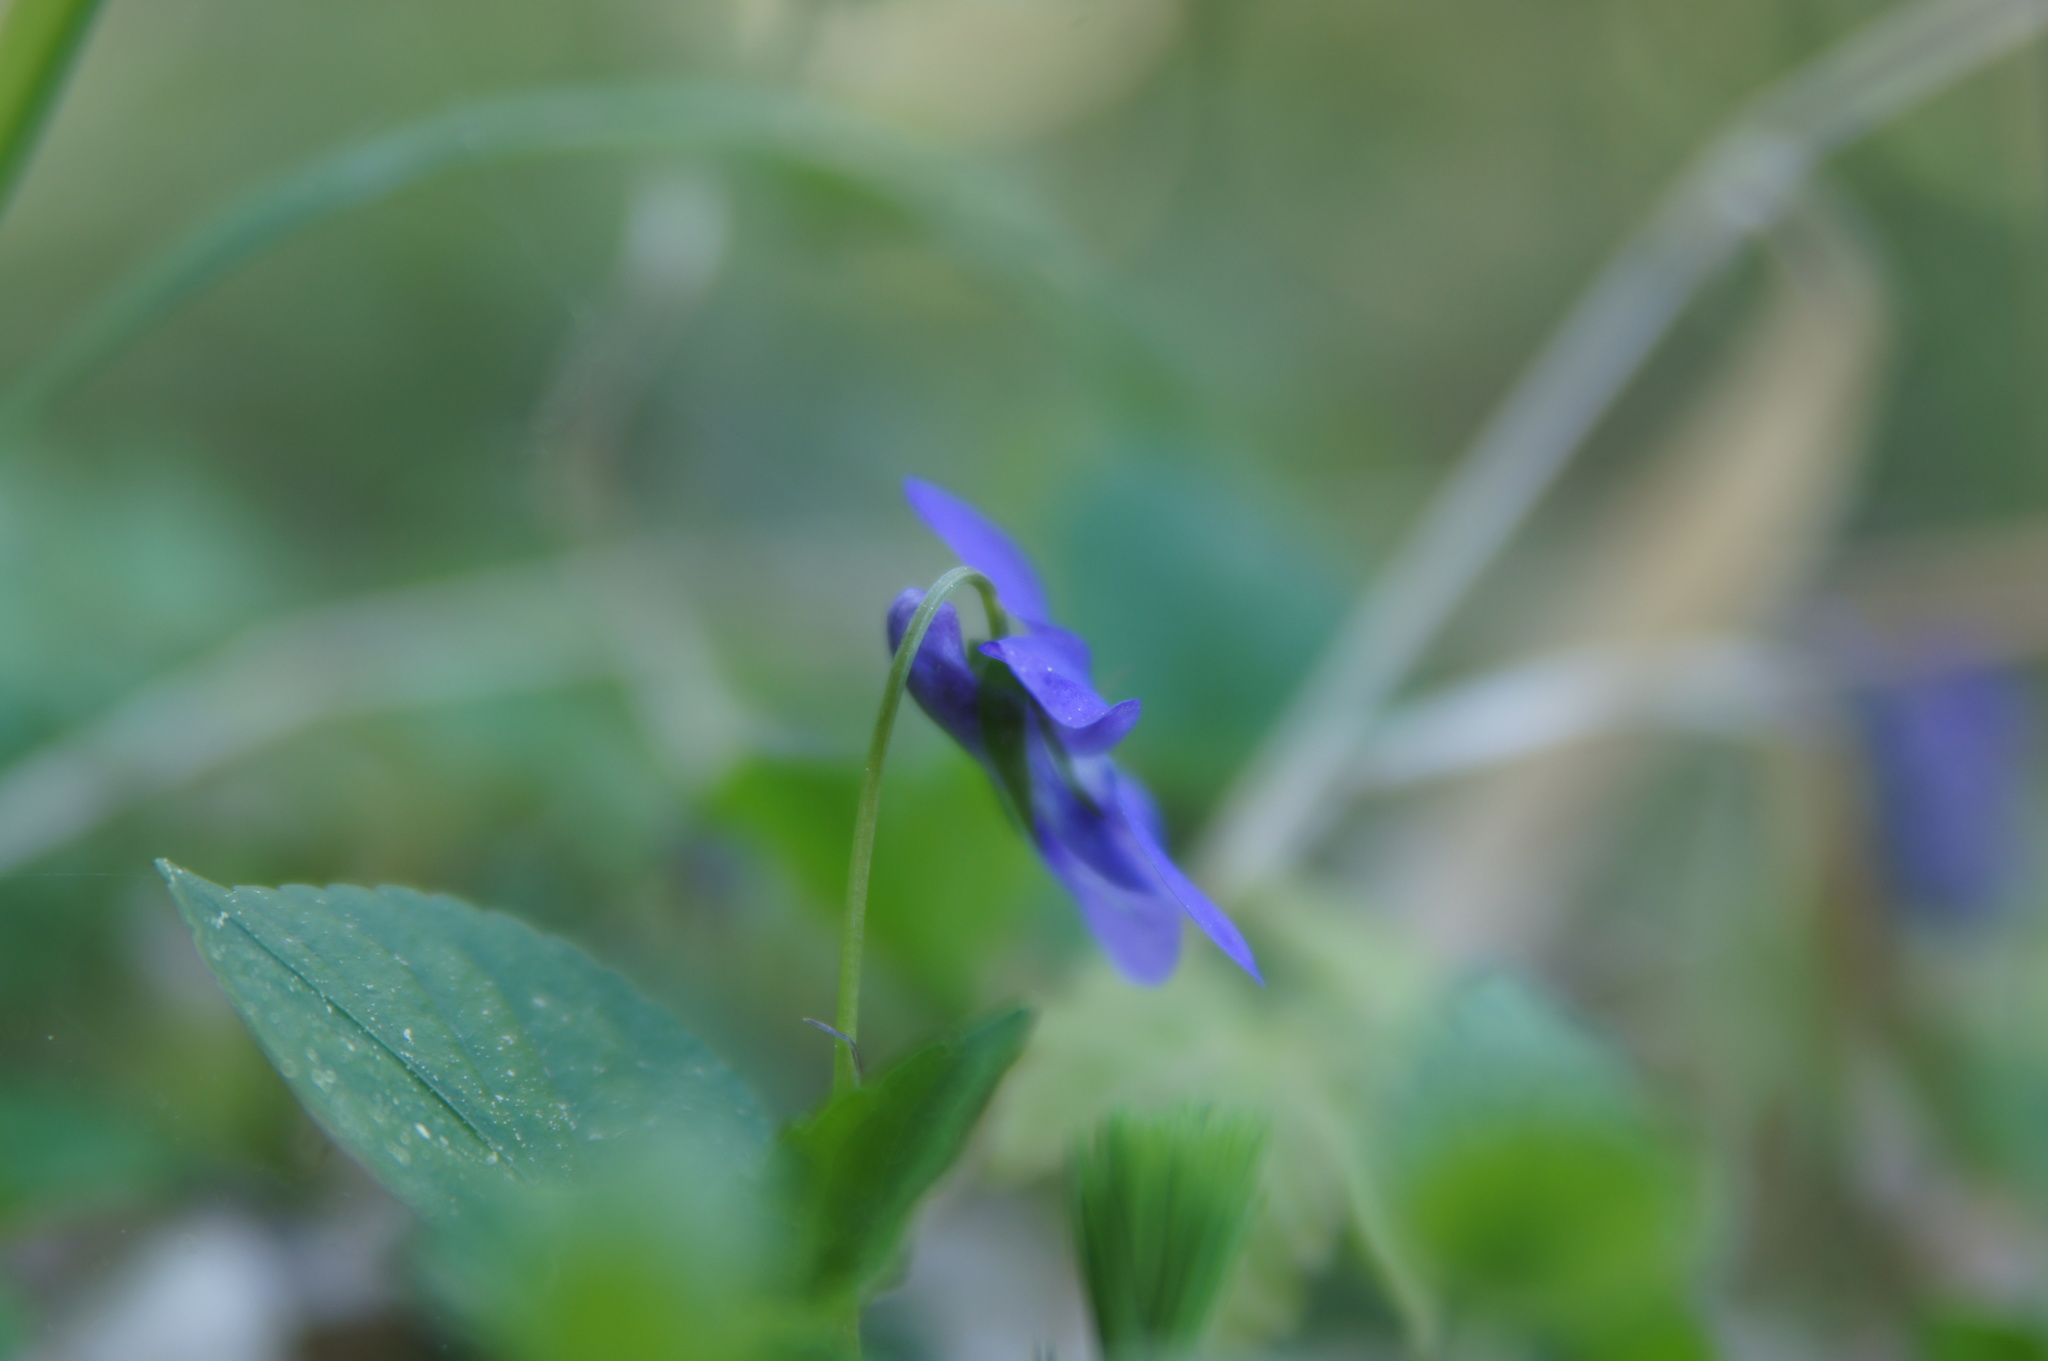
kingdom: Plantae
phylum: Tracheophyta
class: Magnoliopsida
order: Malpighiales
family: Violaceae
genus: Viola
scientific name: Viola reichenbachiana
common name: Early dog-violet
